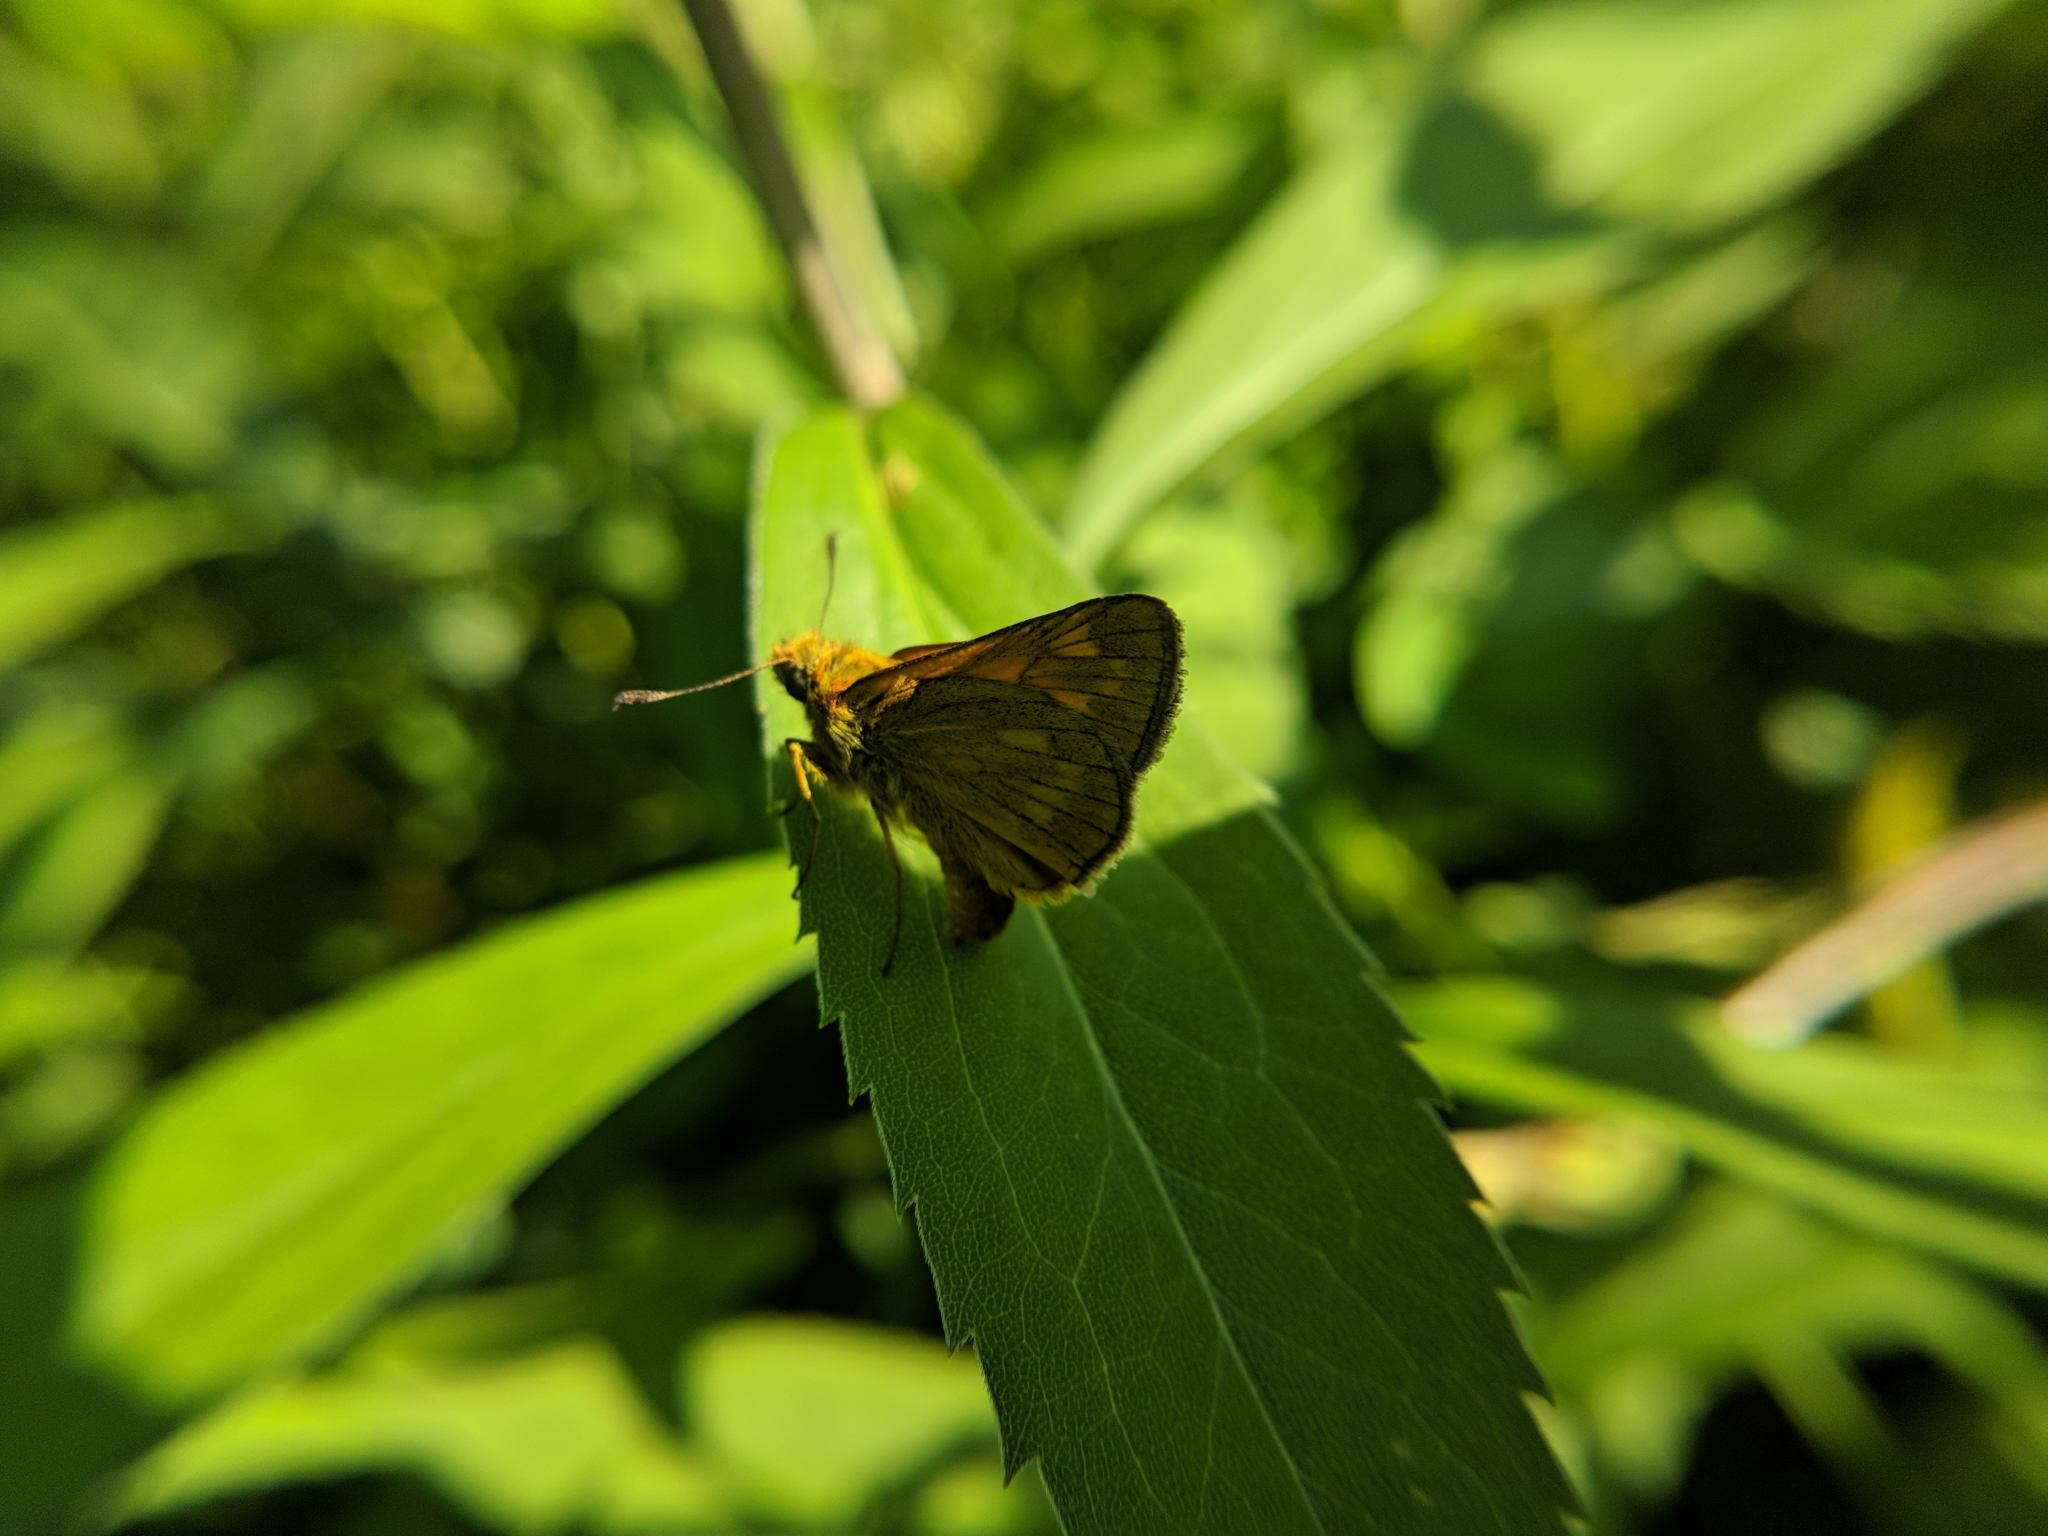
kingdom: Animalia
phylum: Arthropoda
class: Insecta
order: Lepidoptera
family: Hesperiidae
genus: Ochlodes
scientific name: Ochlodes venata
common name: Large skipper
